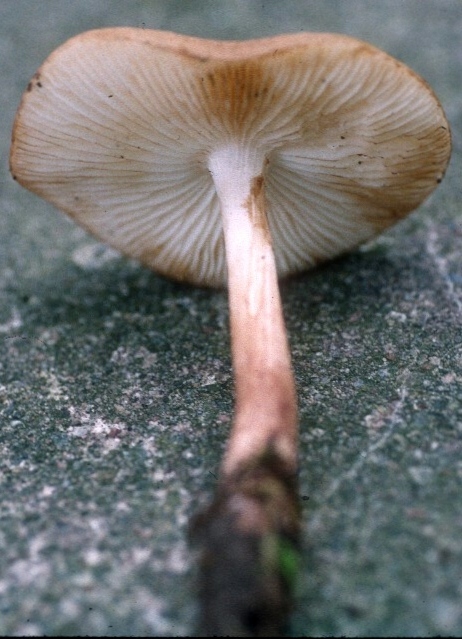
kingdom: Fungi
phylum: Basidiomycota
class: Agaricomycetes
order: Agaricales
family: Physalacriaceae
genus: Hymenopellis
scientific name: Hymenopellis rubrobrunnescens
